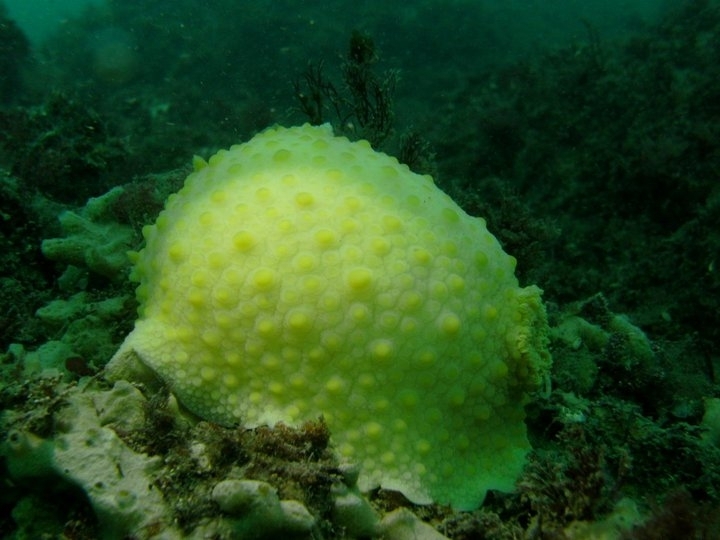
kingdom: Animalia
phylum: Mollusca
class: Gastropoda
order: Nudibranchia
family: Dorididae
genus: Doris
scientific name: Doris fontainii
